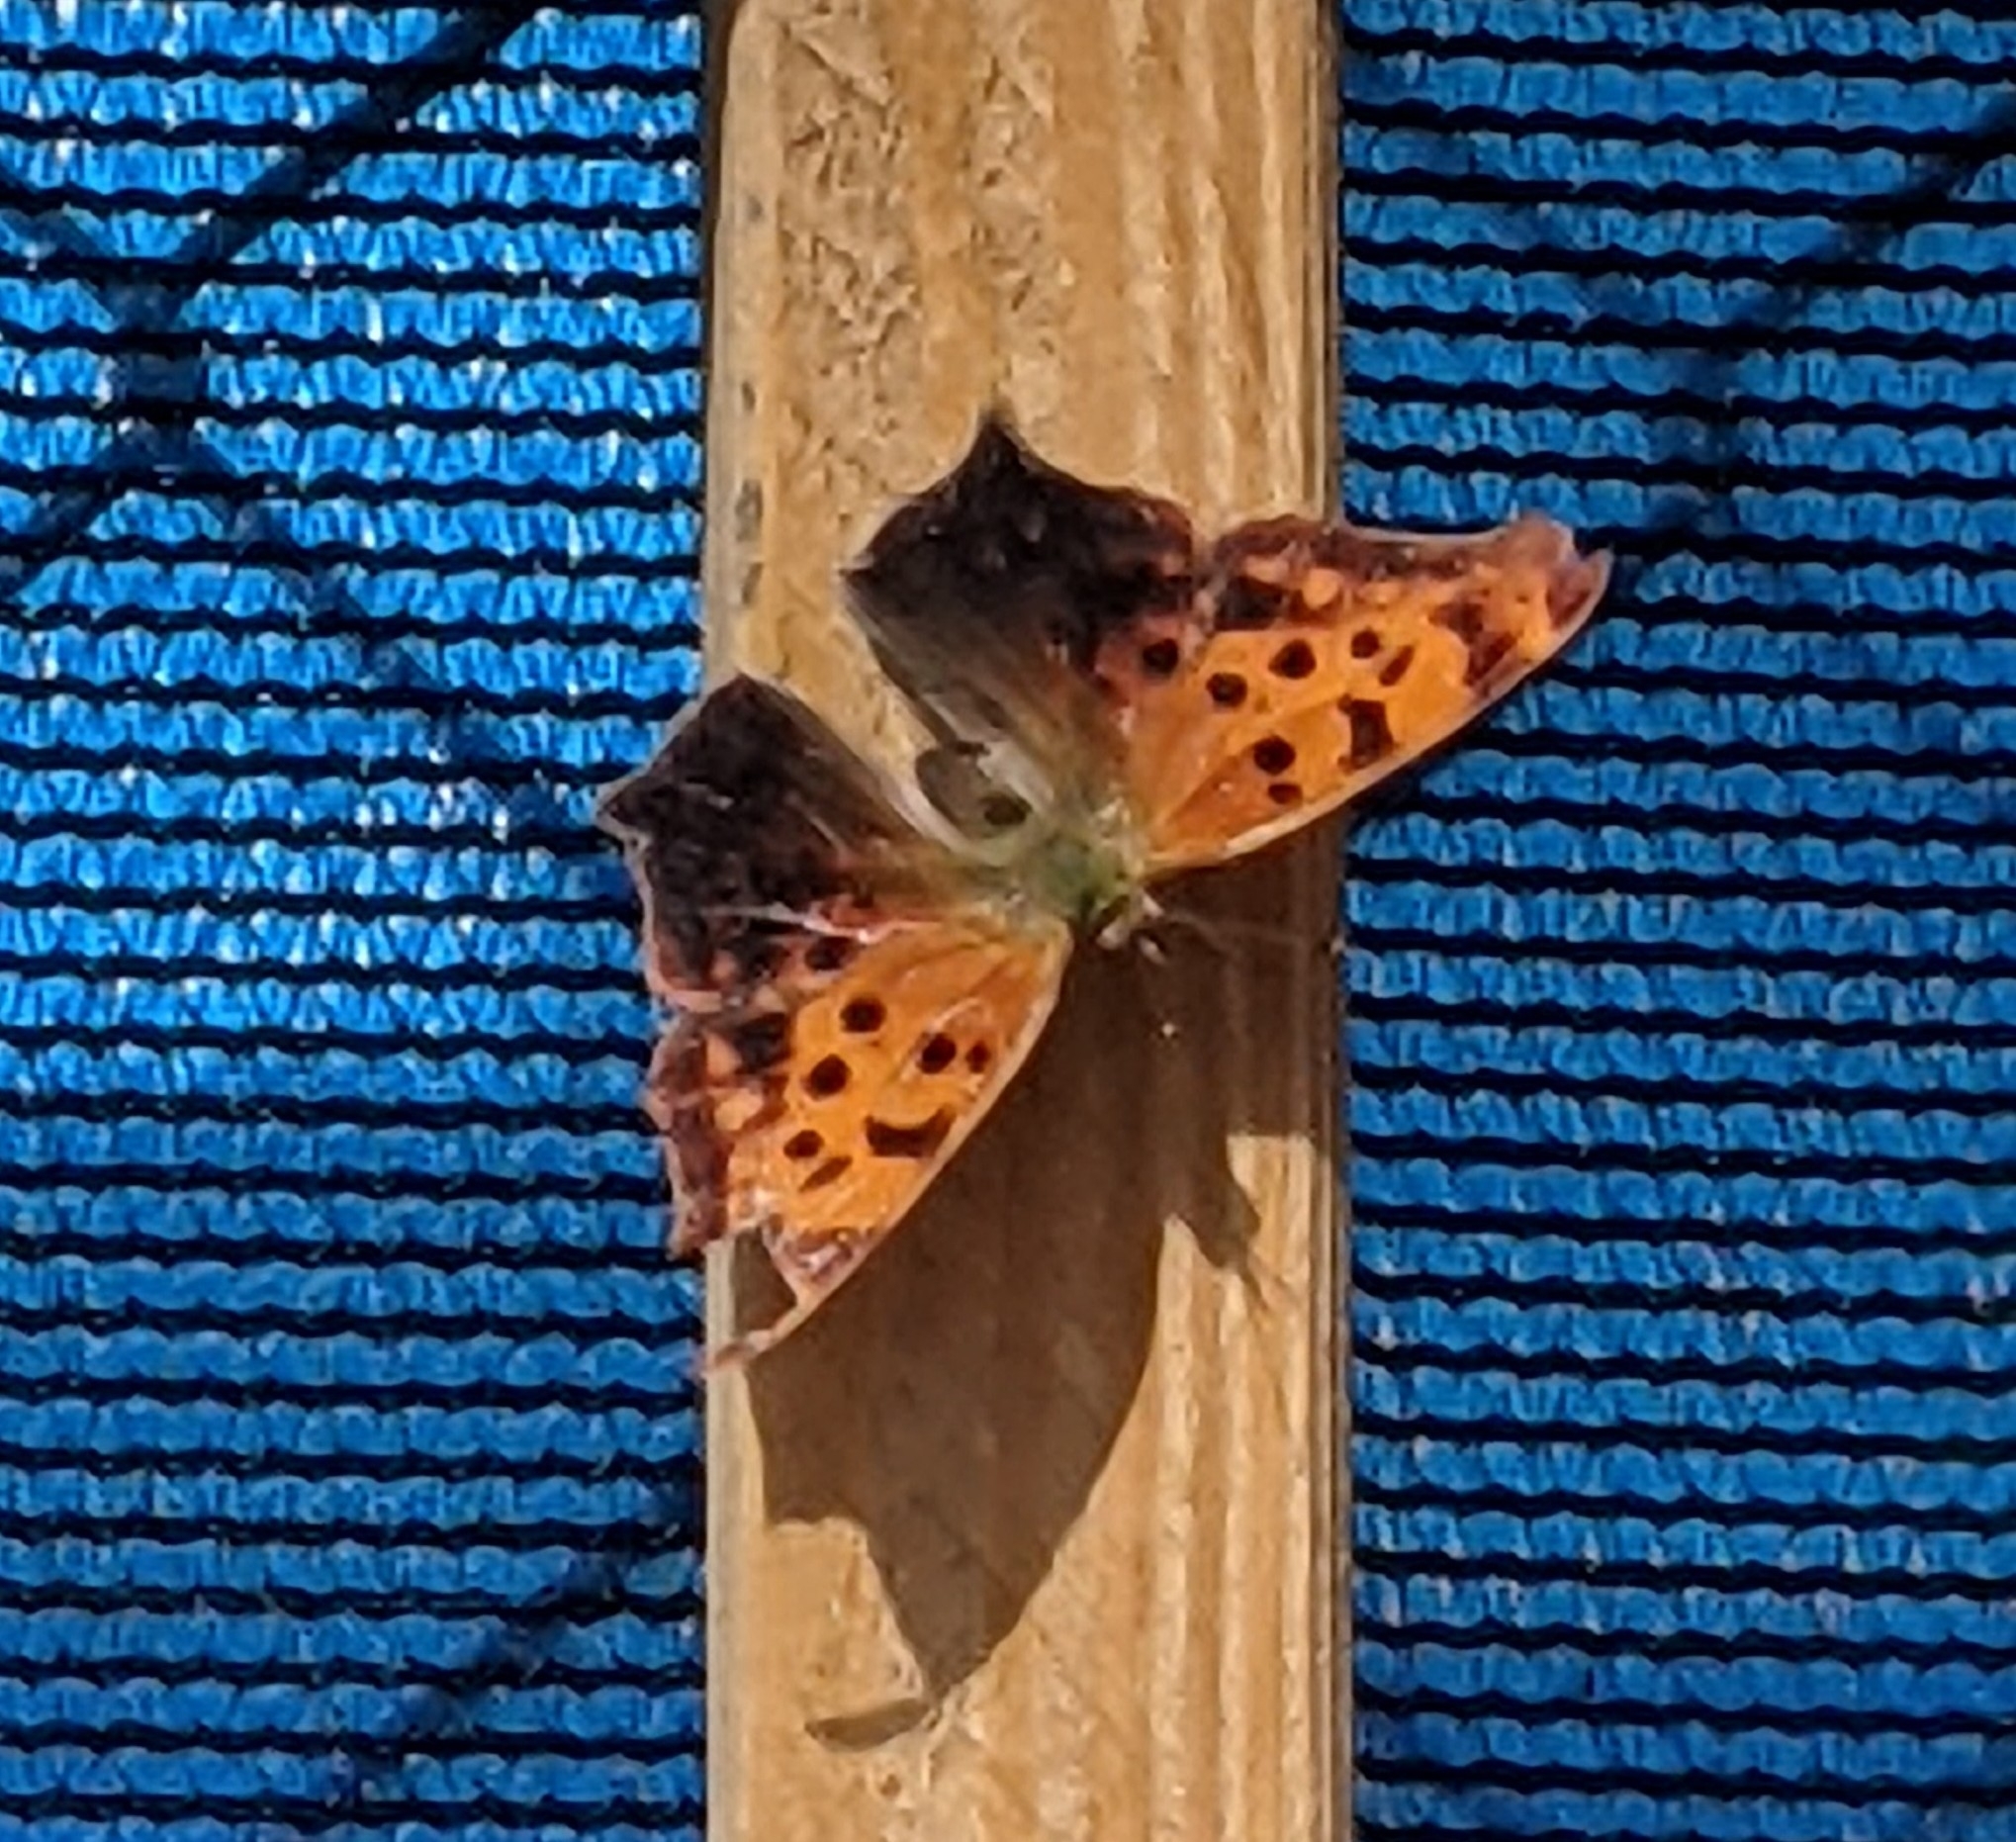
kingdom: Animalia
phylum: Arthropoda
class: Insecta
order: Lepidoptera
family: Nymphalidae
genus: Polygonia
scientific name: Polygonia interrogationis
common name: Question mark
